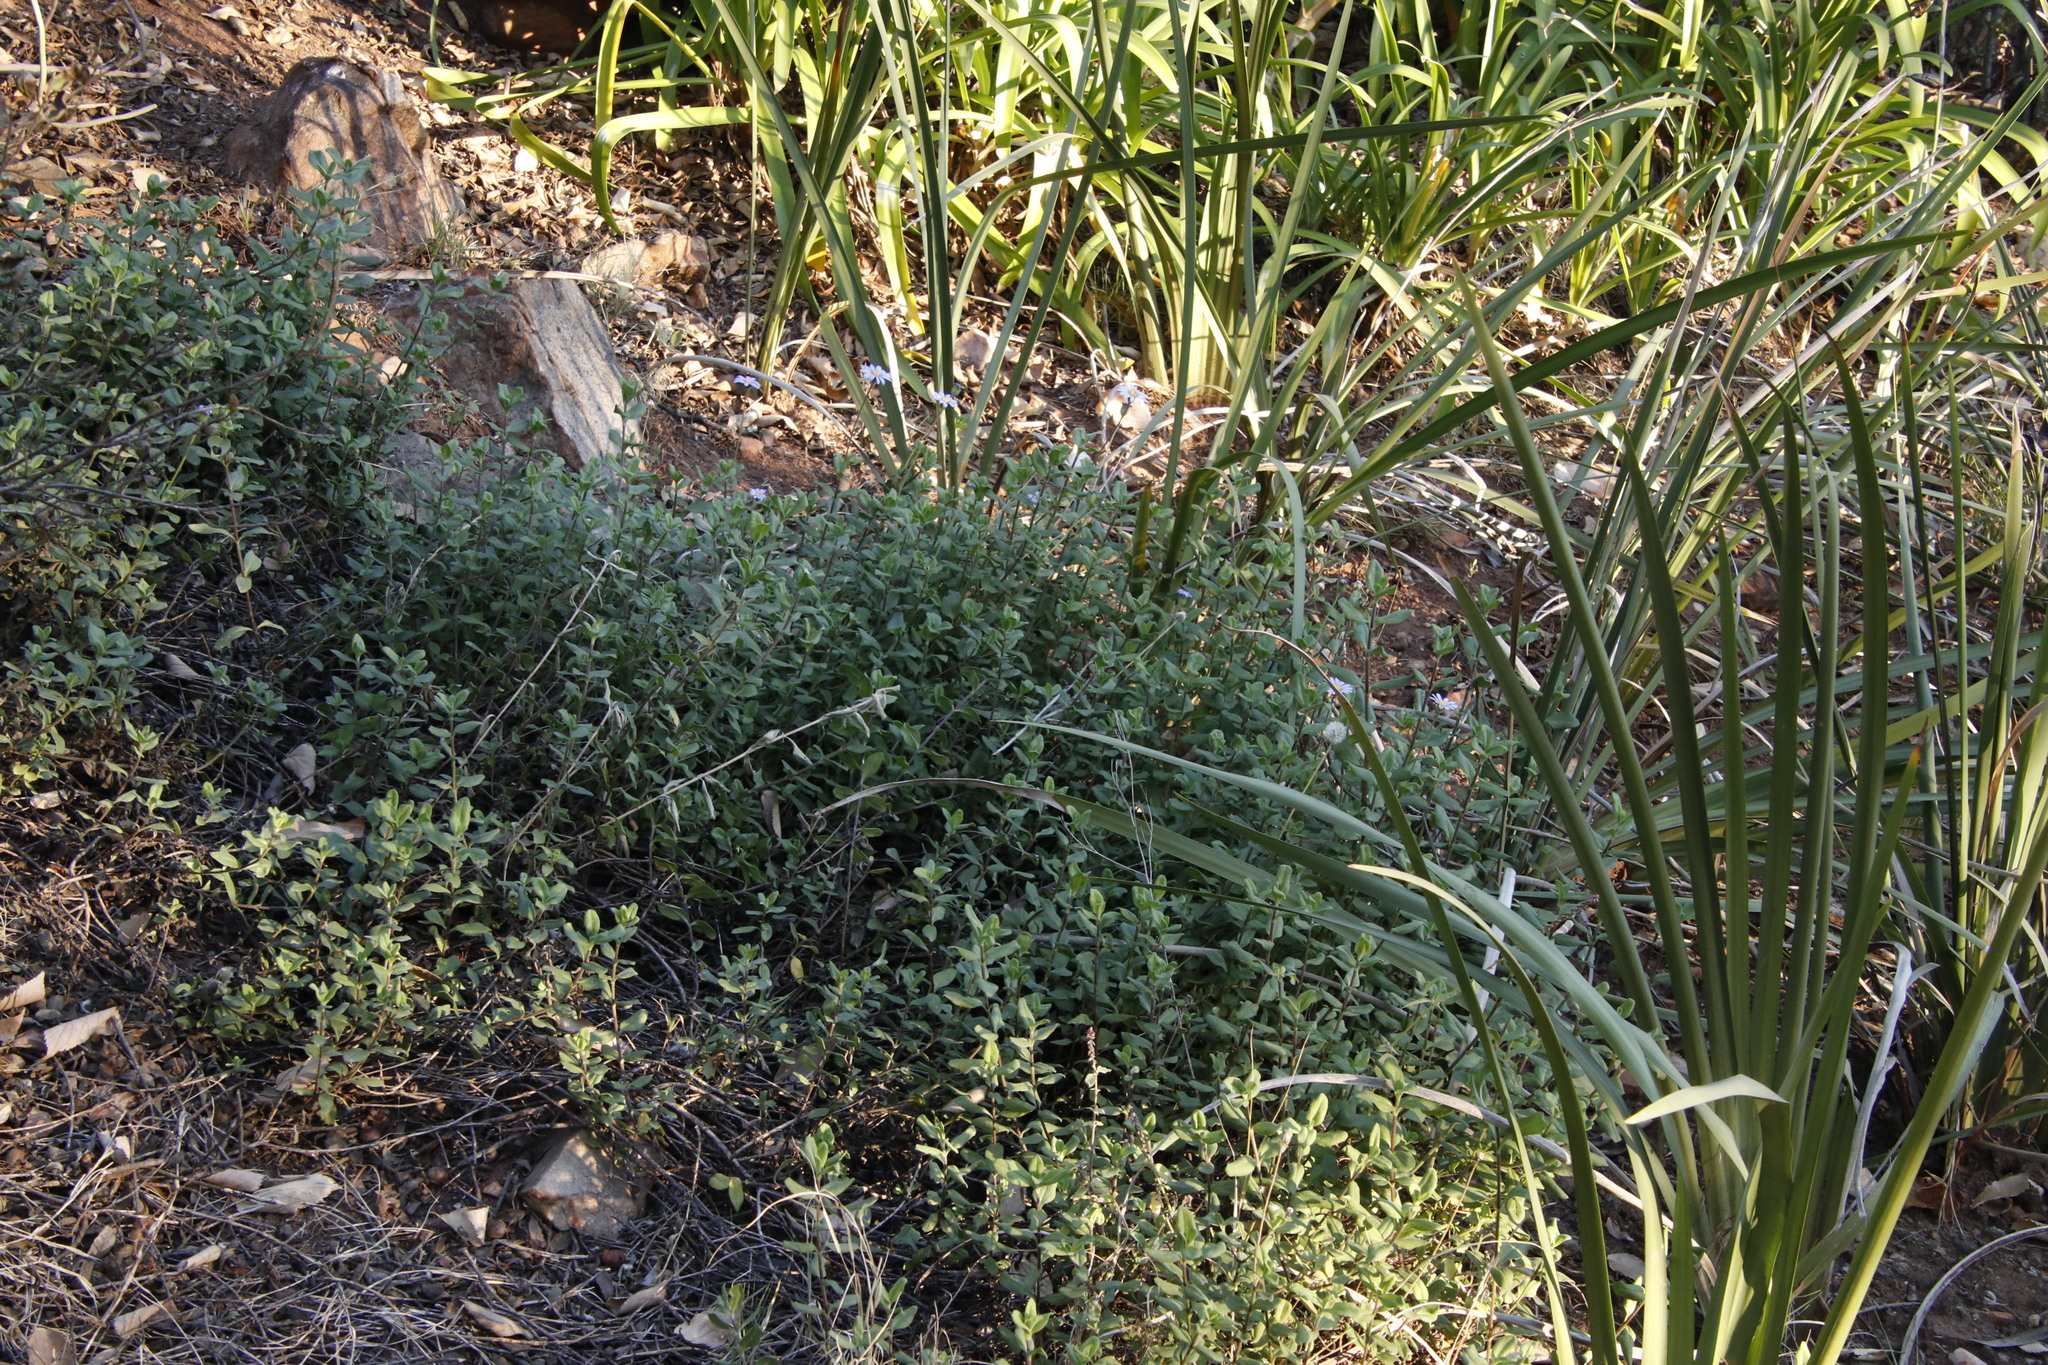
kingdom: Plantae
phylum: Tracheophyta
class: Magnoliopsida
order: Asterales
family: Asteraceae
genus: Felicia
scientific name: Felicia amelloides
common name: Blue marguerite
